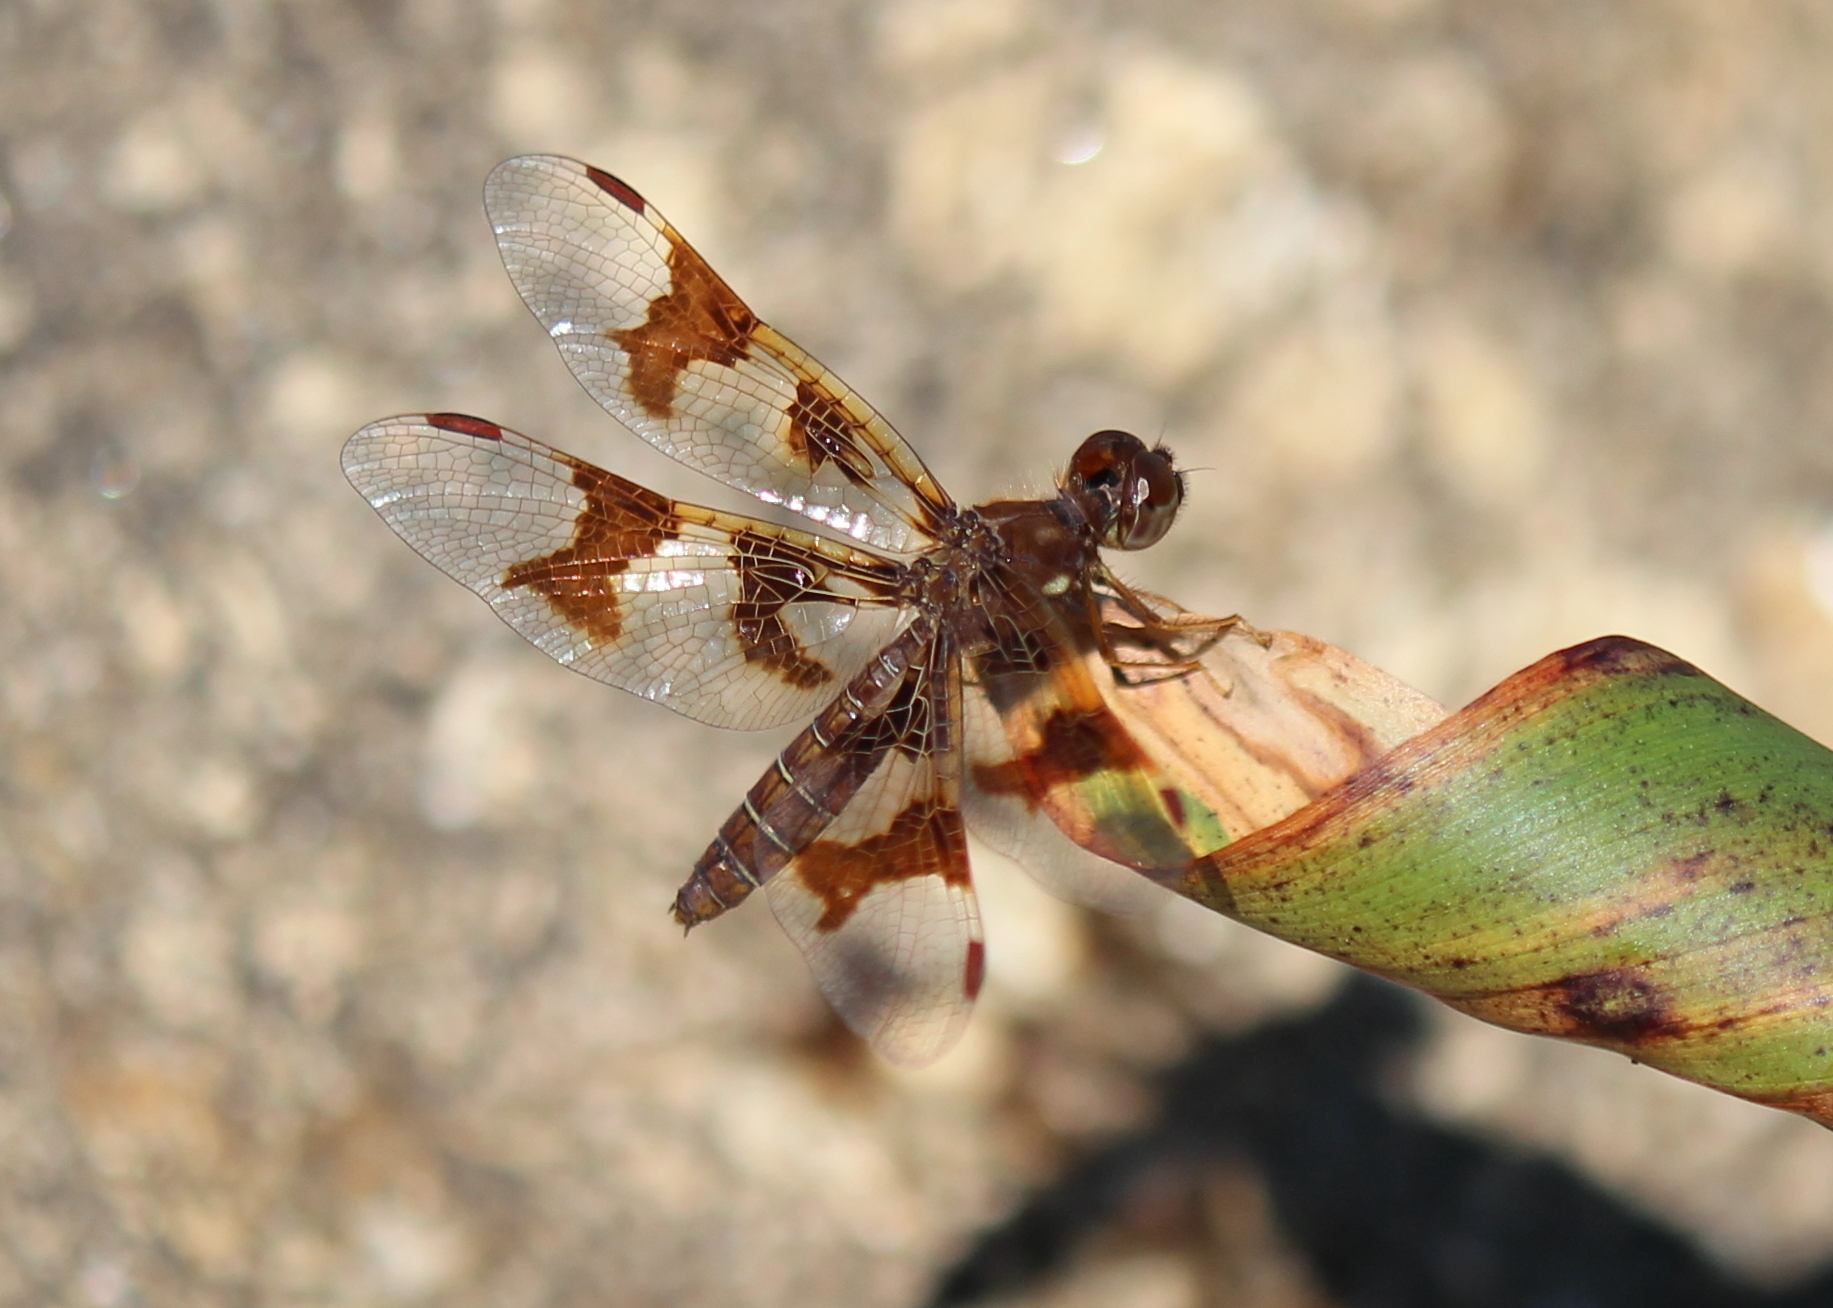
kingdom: Animalia
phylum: Arthropoda
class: Insecta
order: Odonata
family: Libellulidae
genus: Perithemis
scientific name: Perithemis tenera
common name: Eastern amberwing
